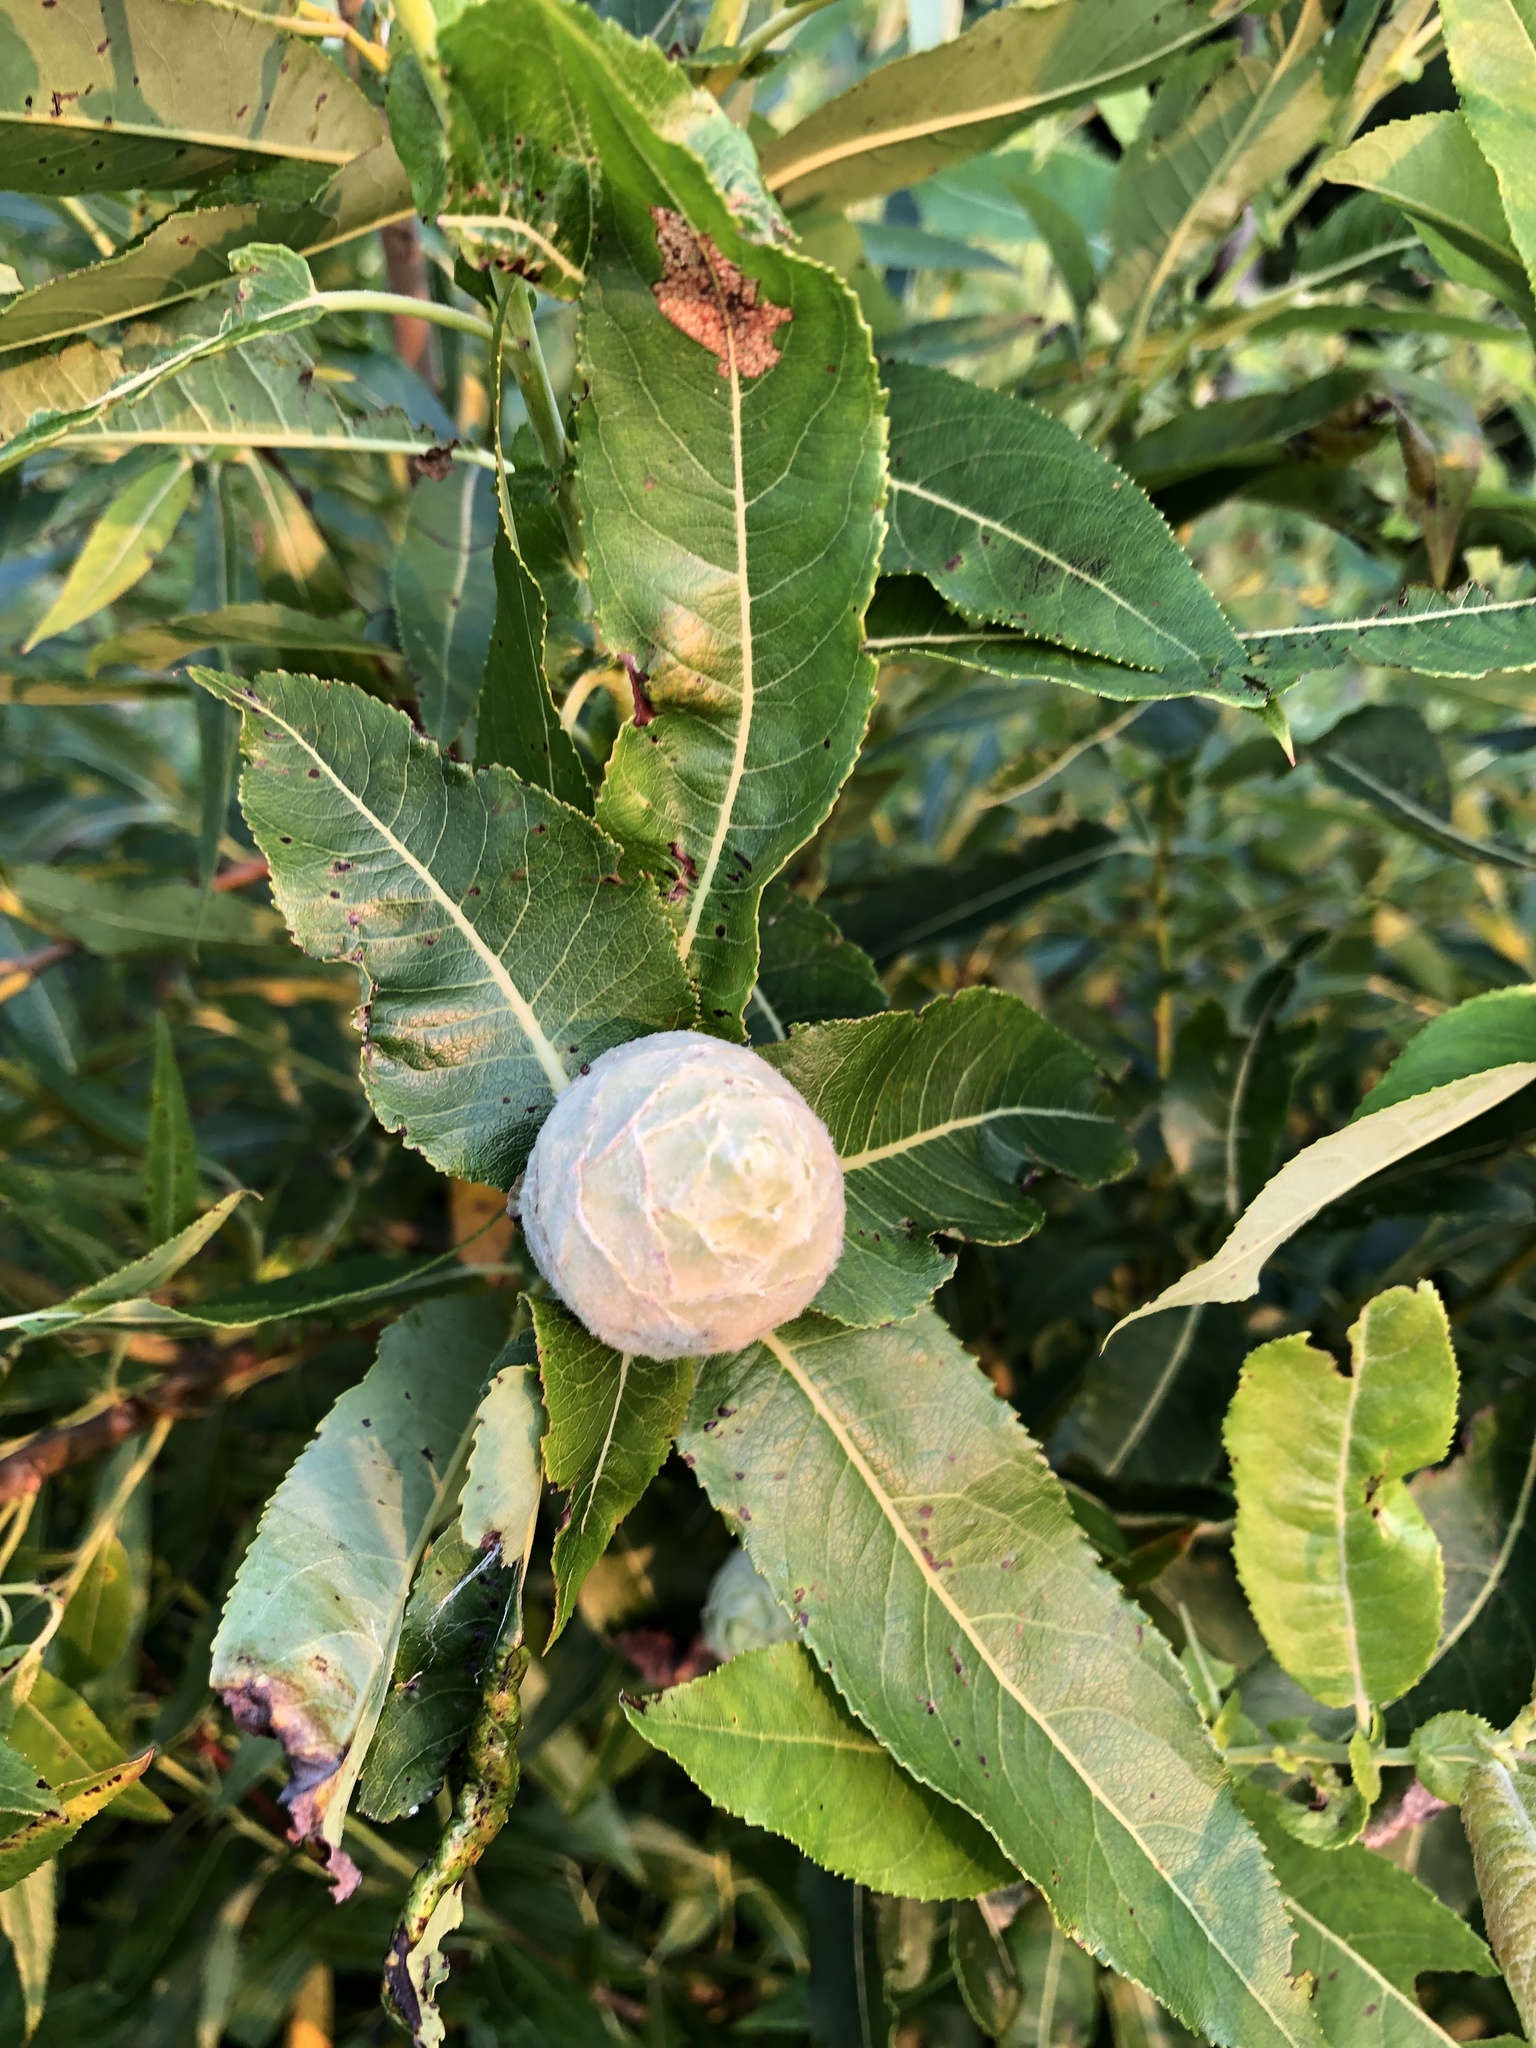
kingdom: Animalia
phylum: Arthropoda
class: Insecta
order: Diptera
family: Cecidomyiidae
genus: Rabdophaga
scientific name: Rabdophaga strobiloides
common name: Willow pinecone gall midge
